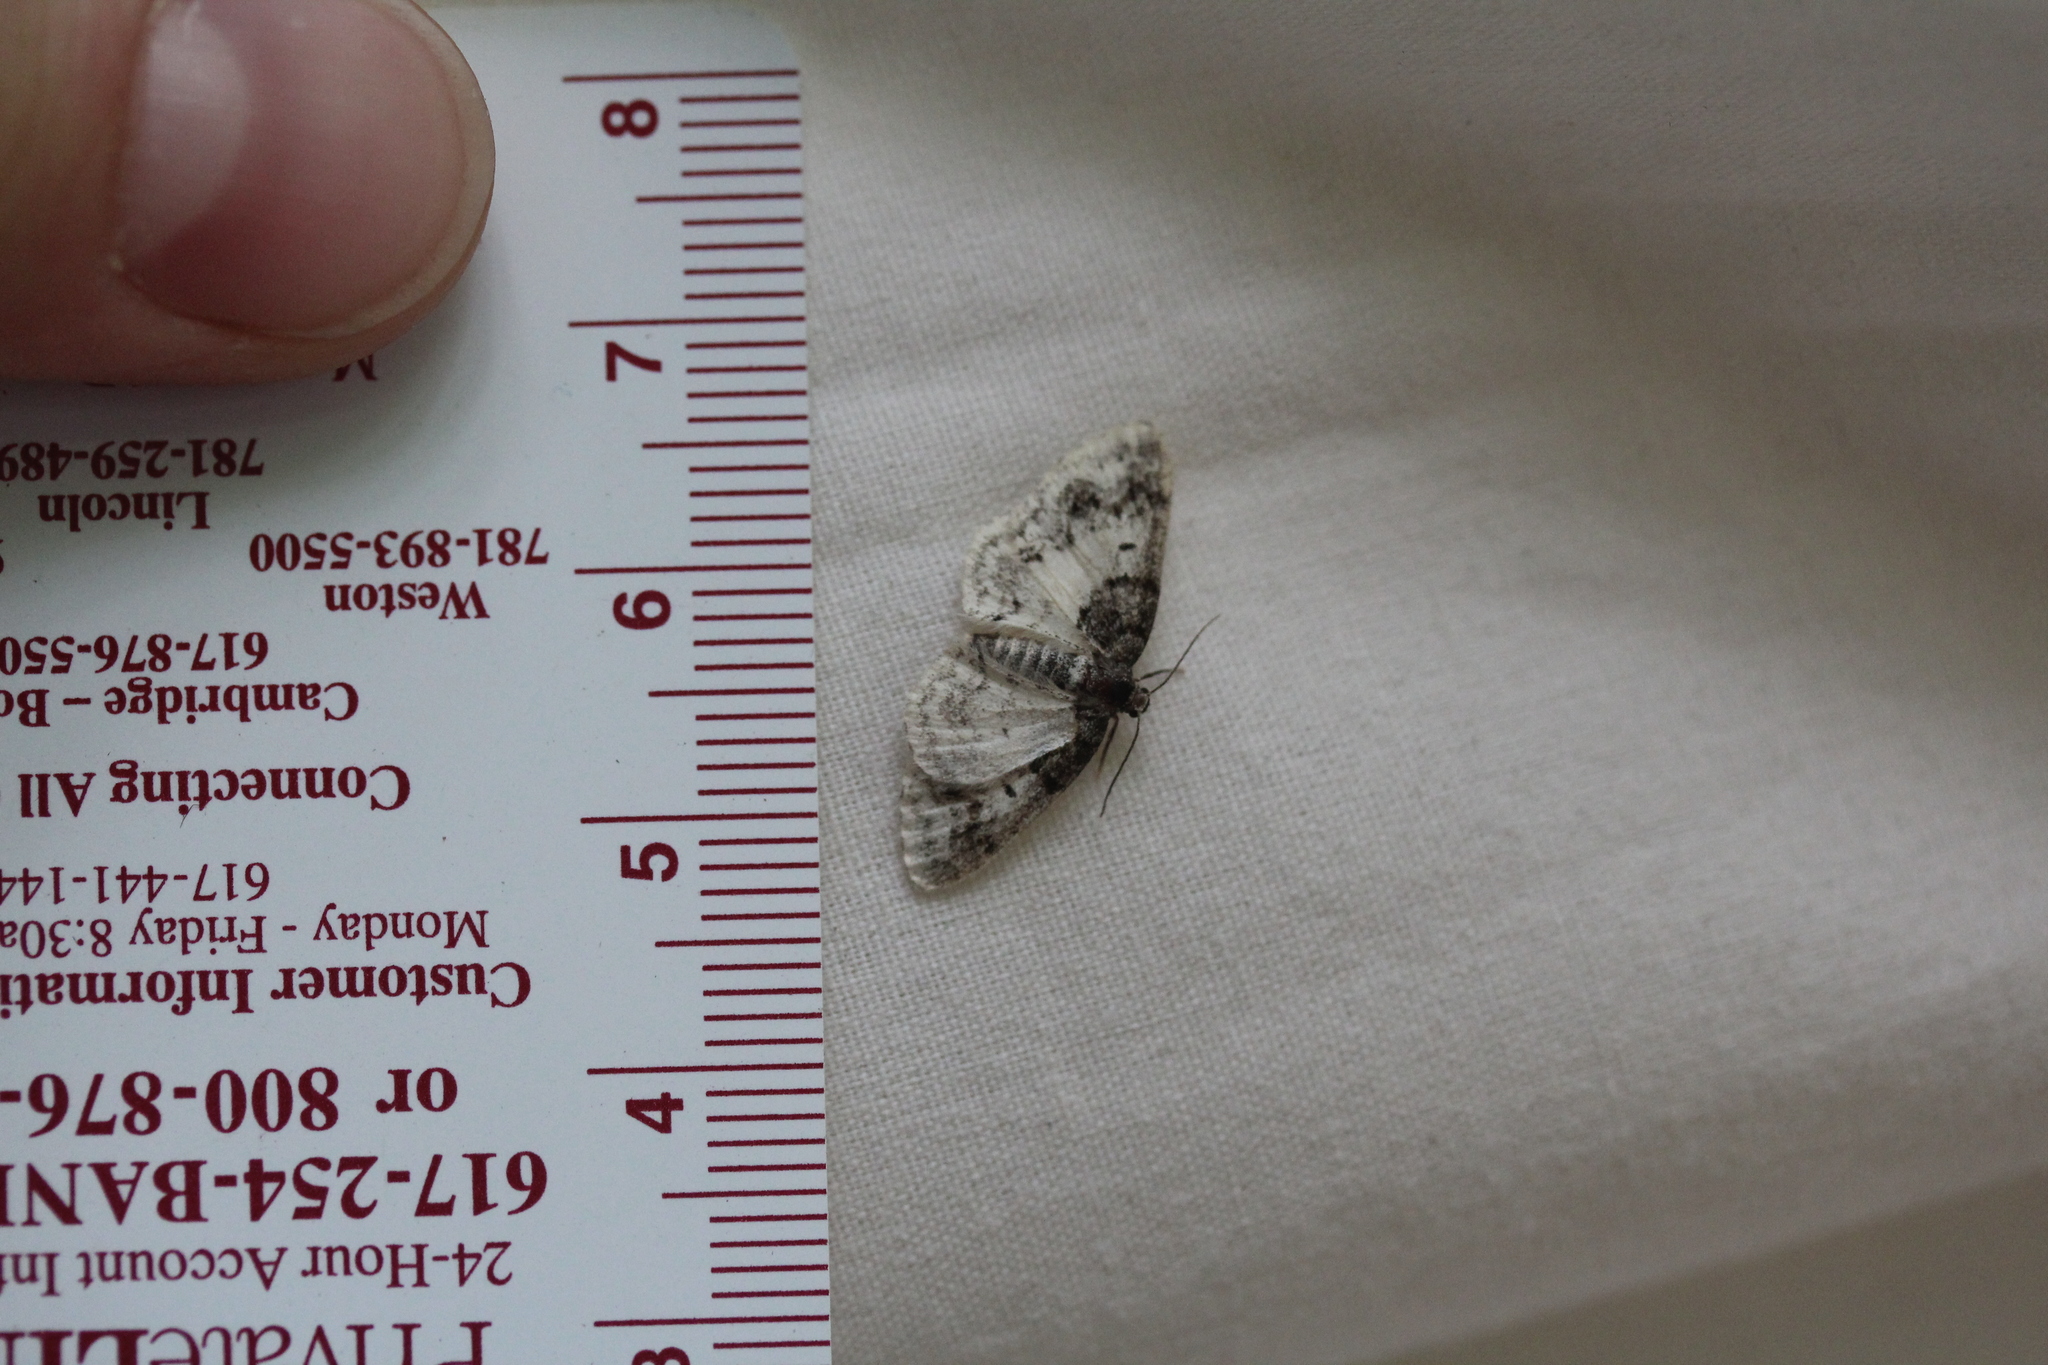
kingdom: Animalia
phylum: Arthropoda
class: Insecta
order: Lepidoptera
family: Geometridae
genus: Hydrelia
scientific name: Hydrelia condensata
